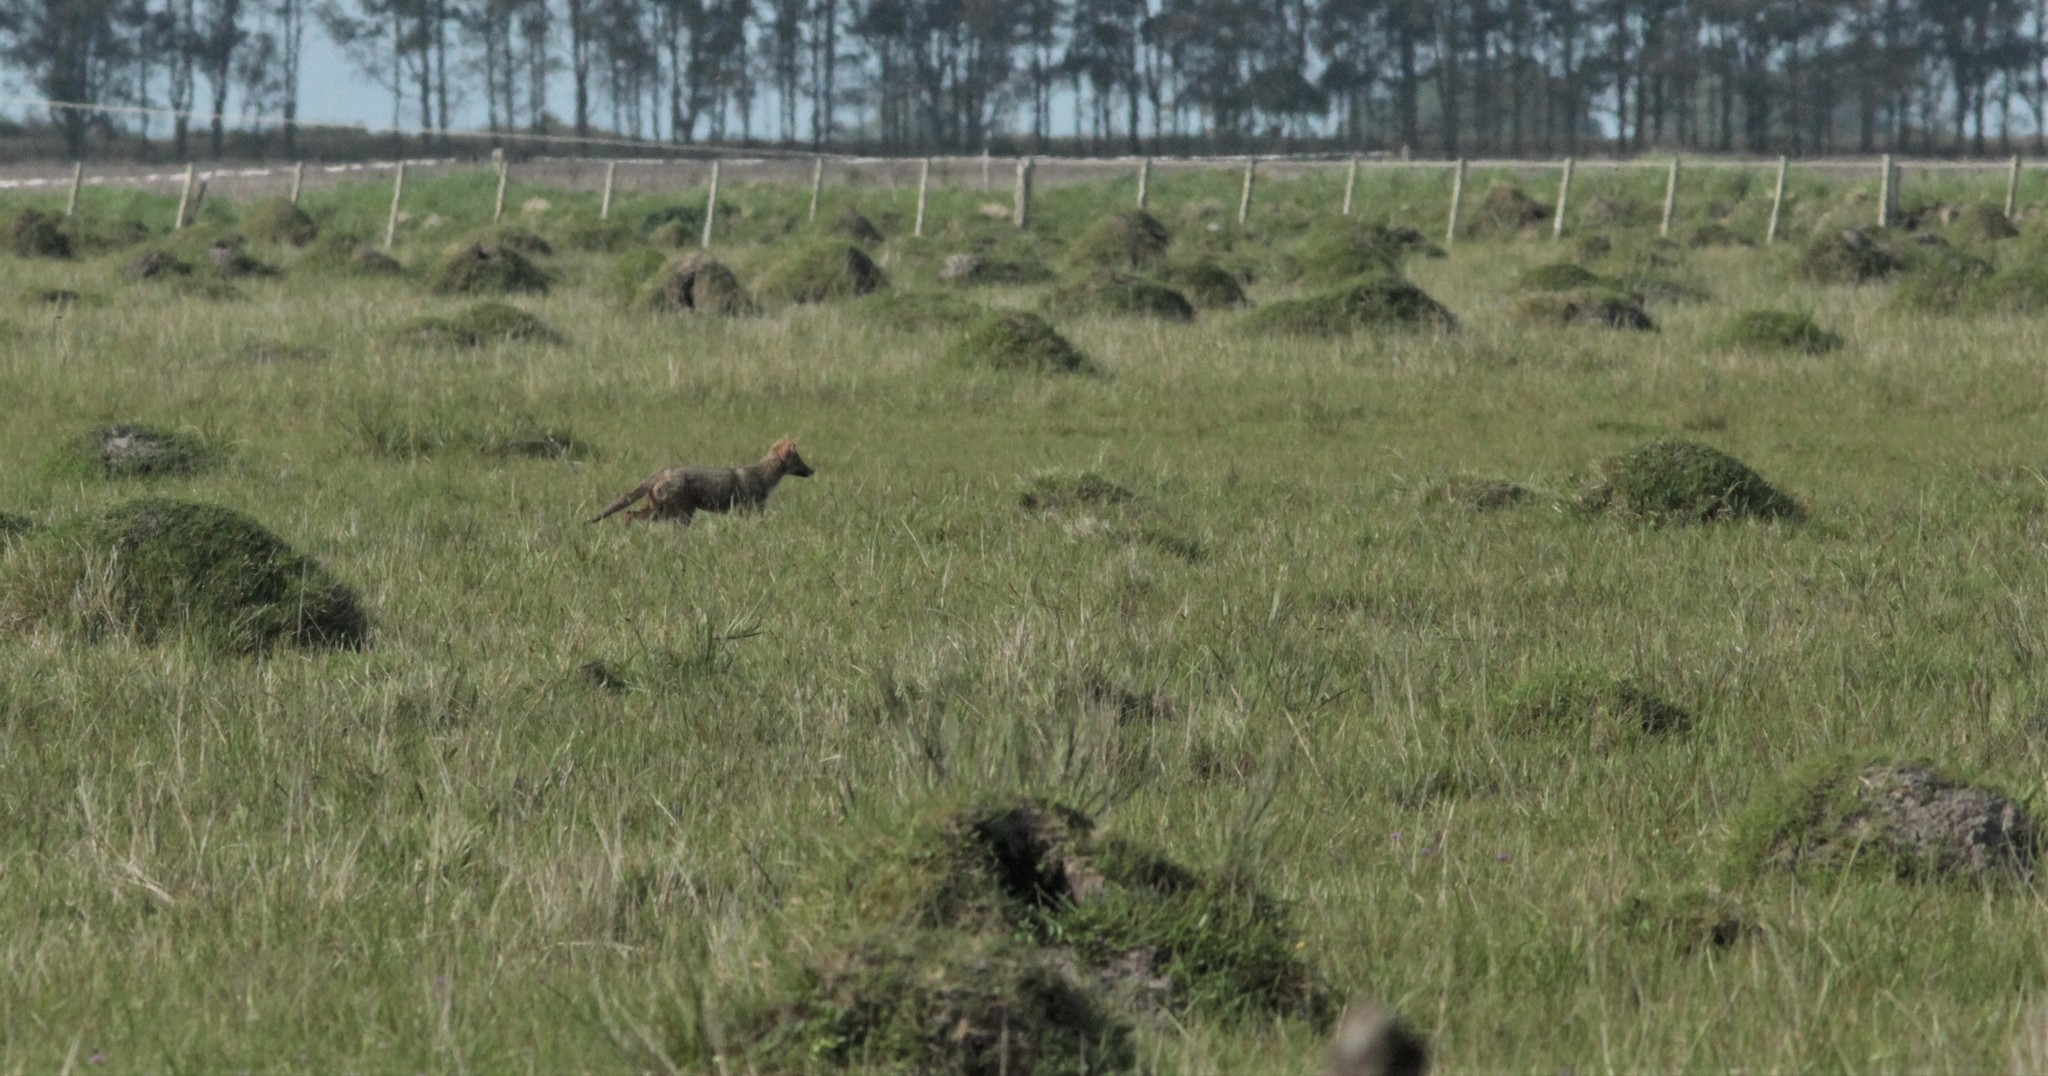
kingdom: Animalia
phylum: Chordata
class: Mammalia
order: Carnivora
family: Canidae
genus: Lycalopex
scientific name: Lycalopex gymnocercus
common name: Pampas fox
